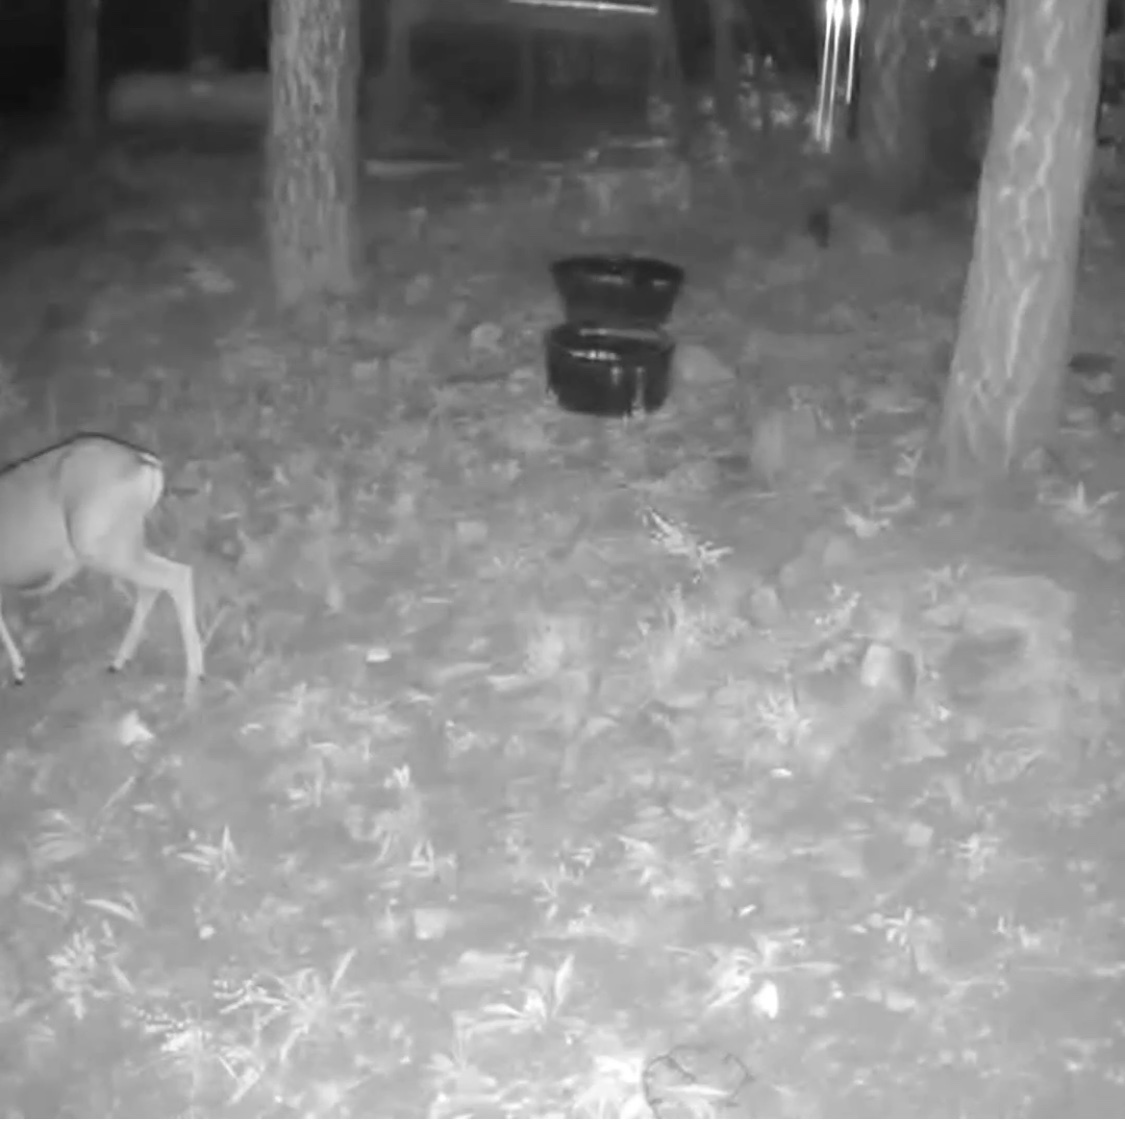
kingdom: Animalia
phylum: Chordata
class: Mammalia
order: Artiodactyla
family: Cervidae
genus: Odocoileus
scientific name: Odocoileus hemionus
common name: Mule deer
